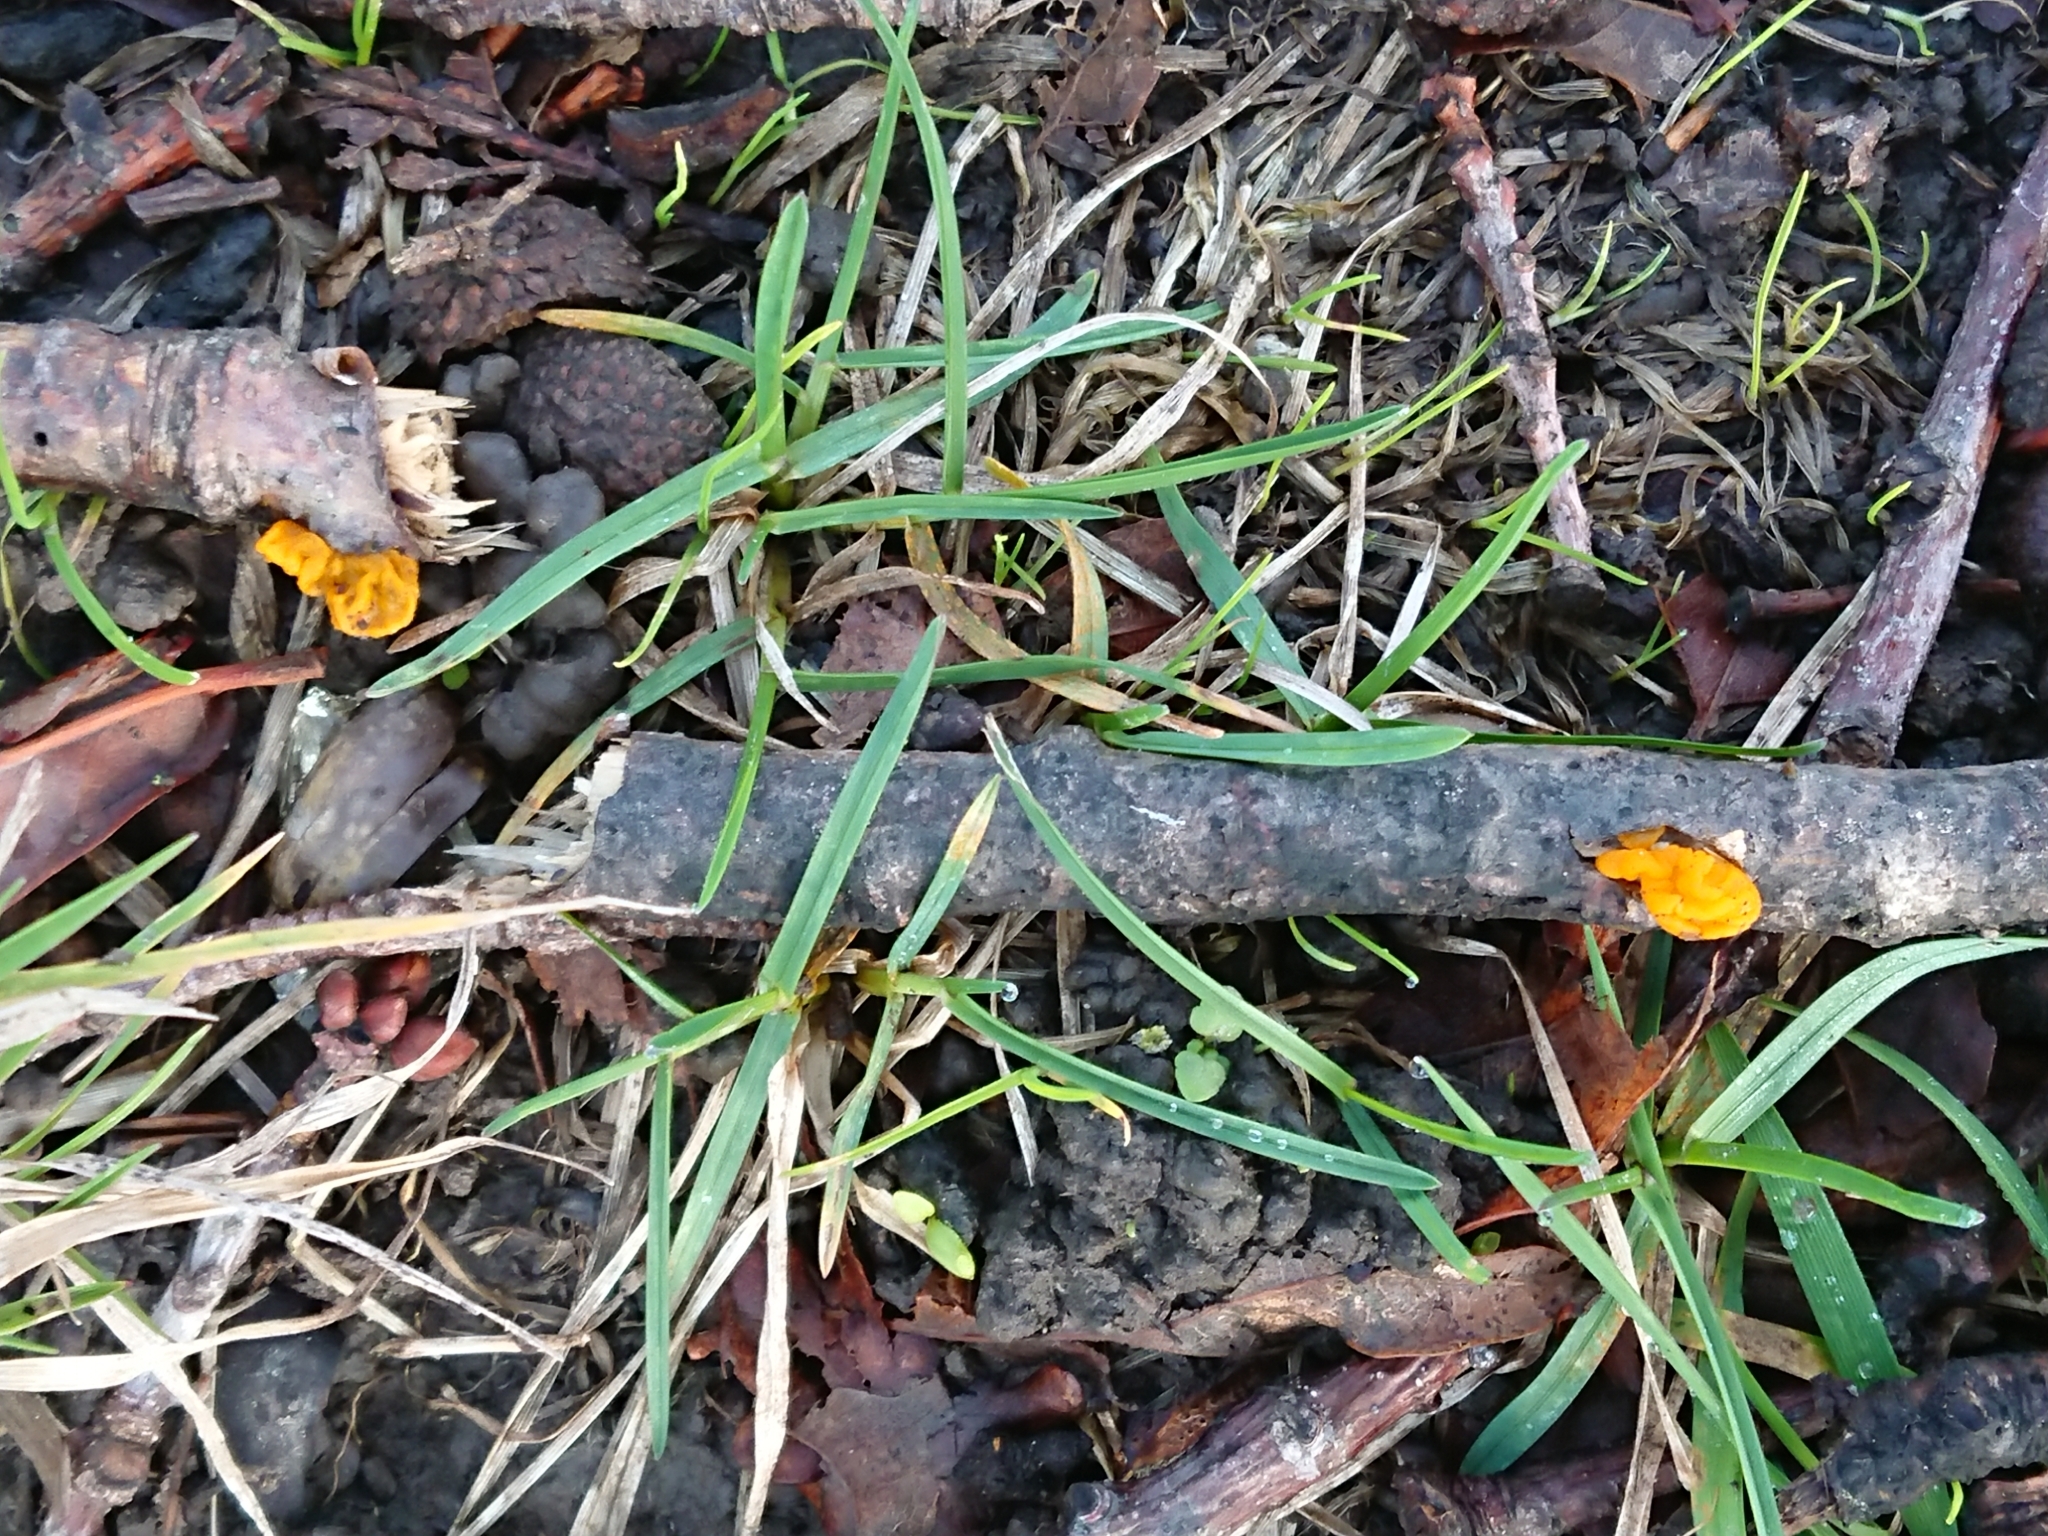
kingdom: Fungi
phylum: Basidiomycota
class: Tremellomycetes
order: Tremellales
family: Tremellaceae
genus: Tremella
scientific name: Tremella mesenterica
